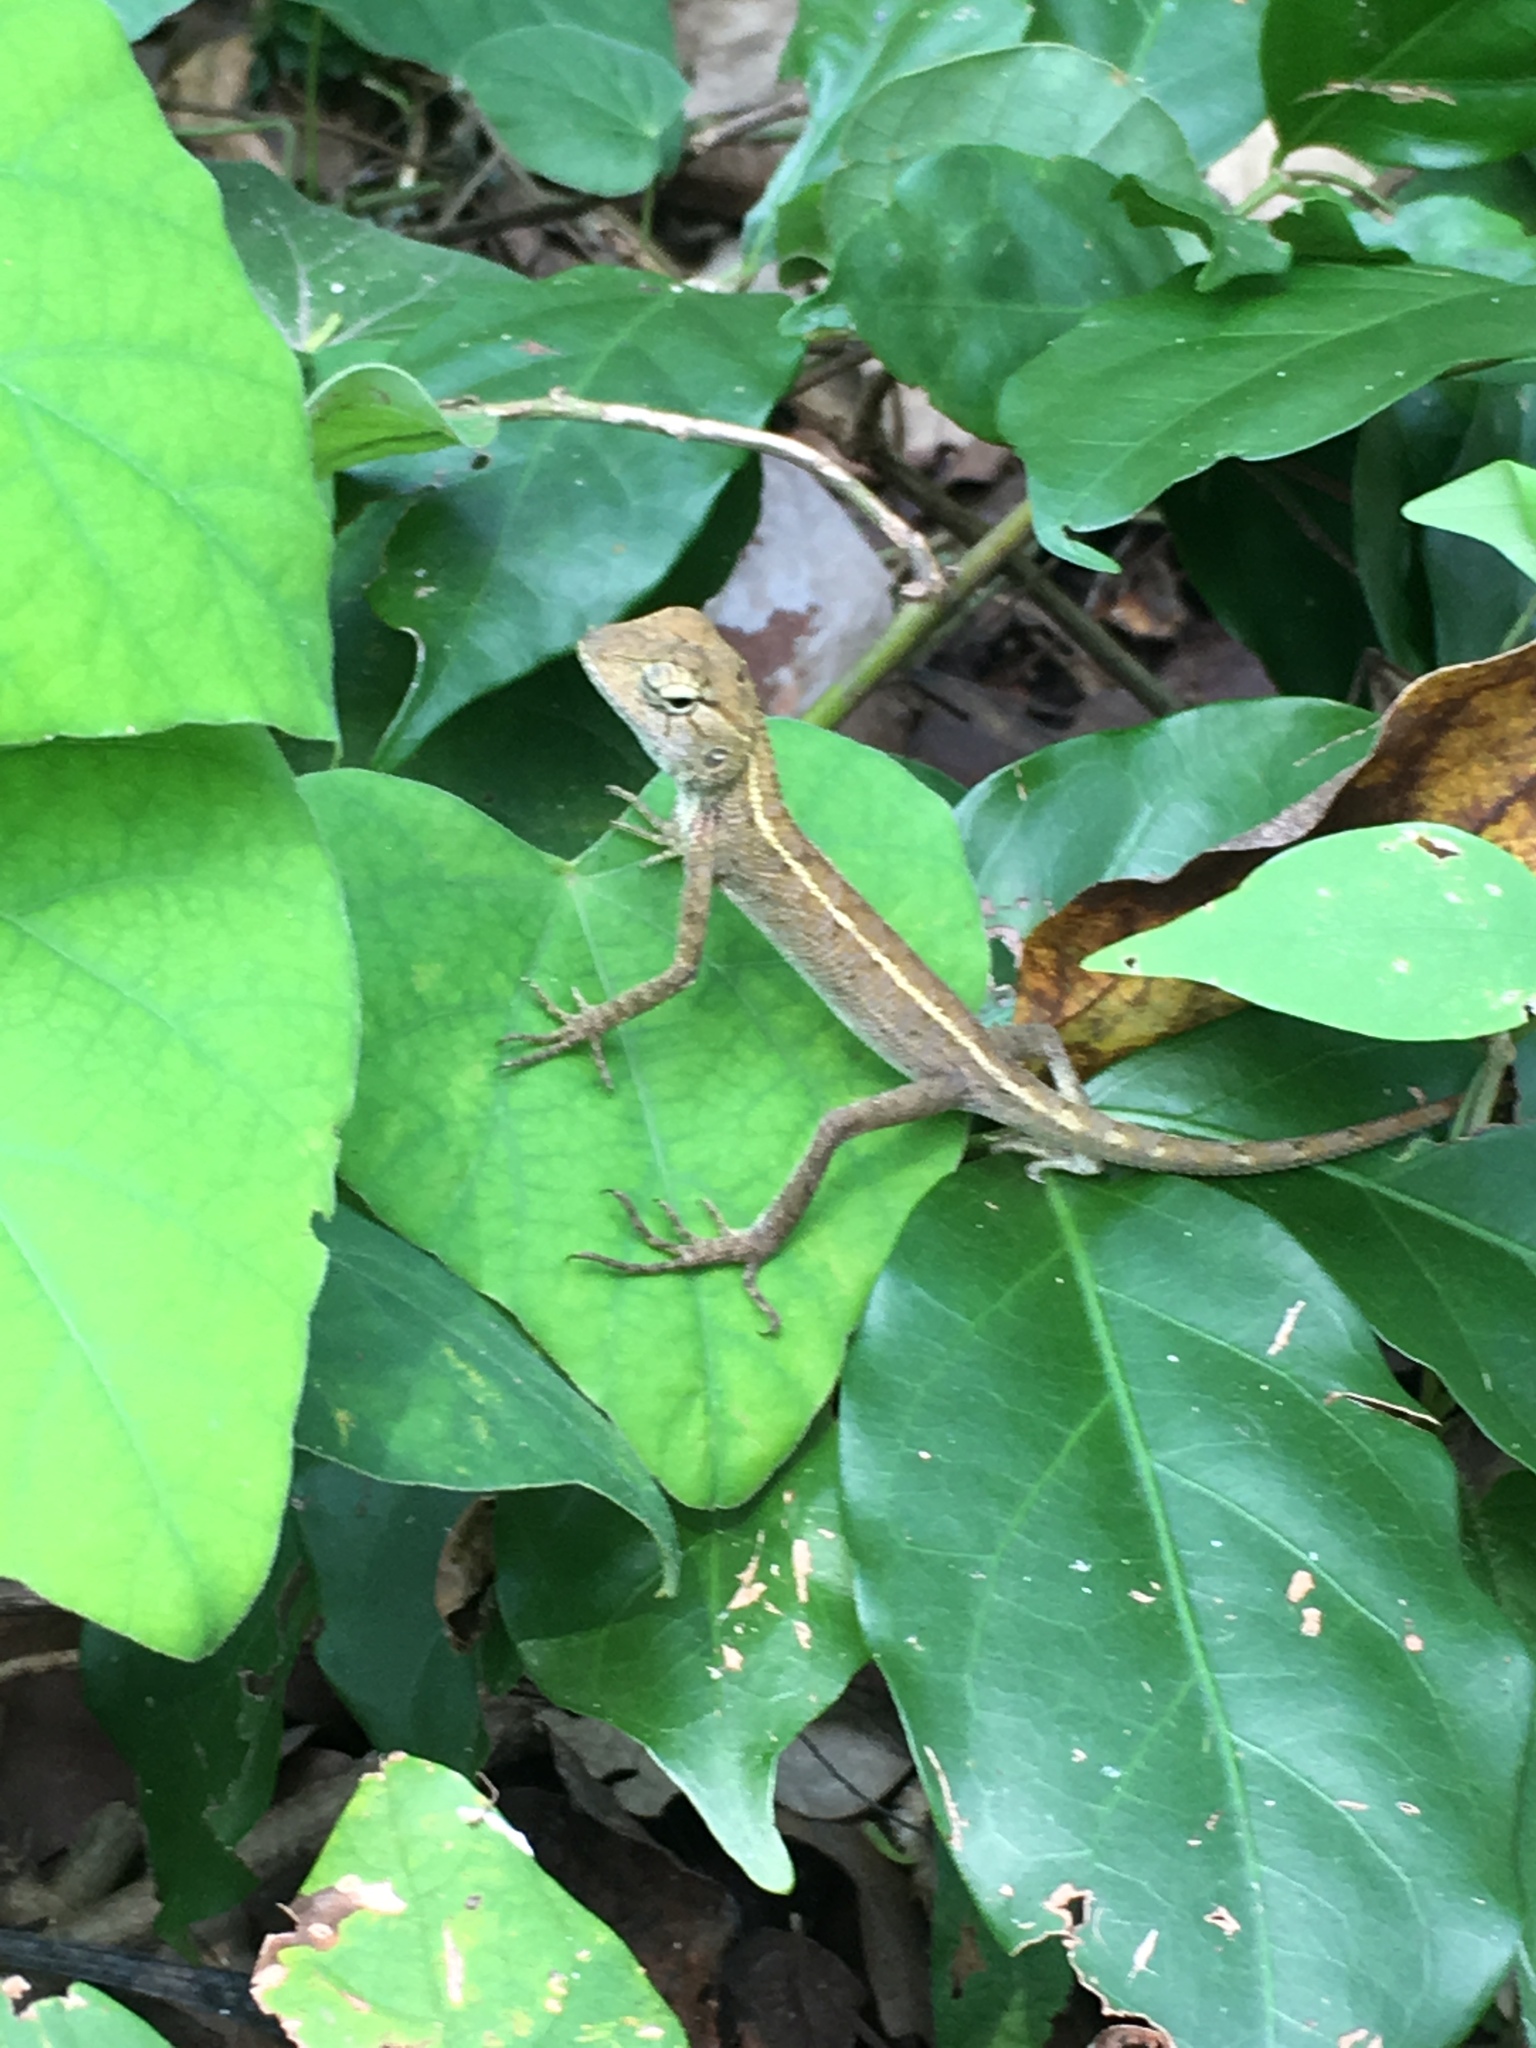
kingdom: Animalia
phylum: Chordata
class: Squamata
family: Agamidae
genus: Calotes
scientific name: Calotes versicolor
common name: Oriental garden lizard
